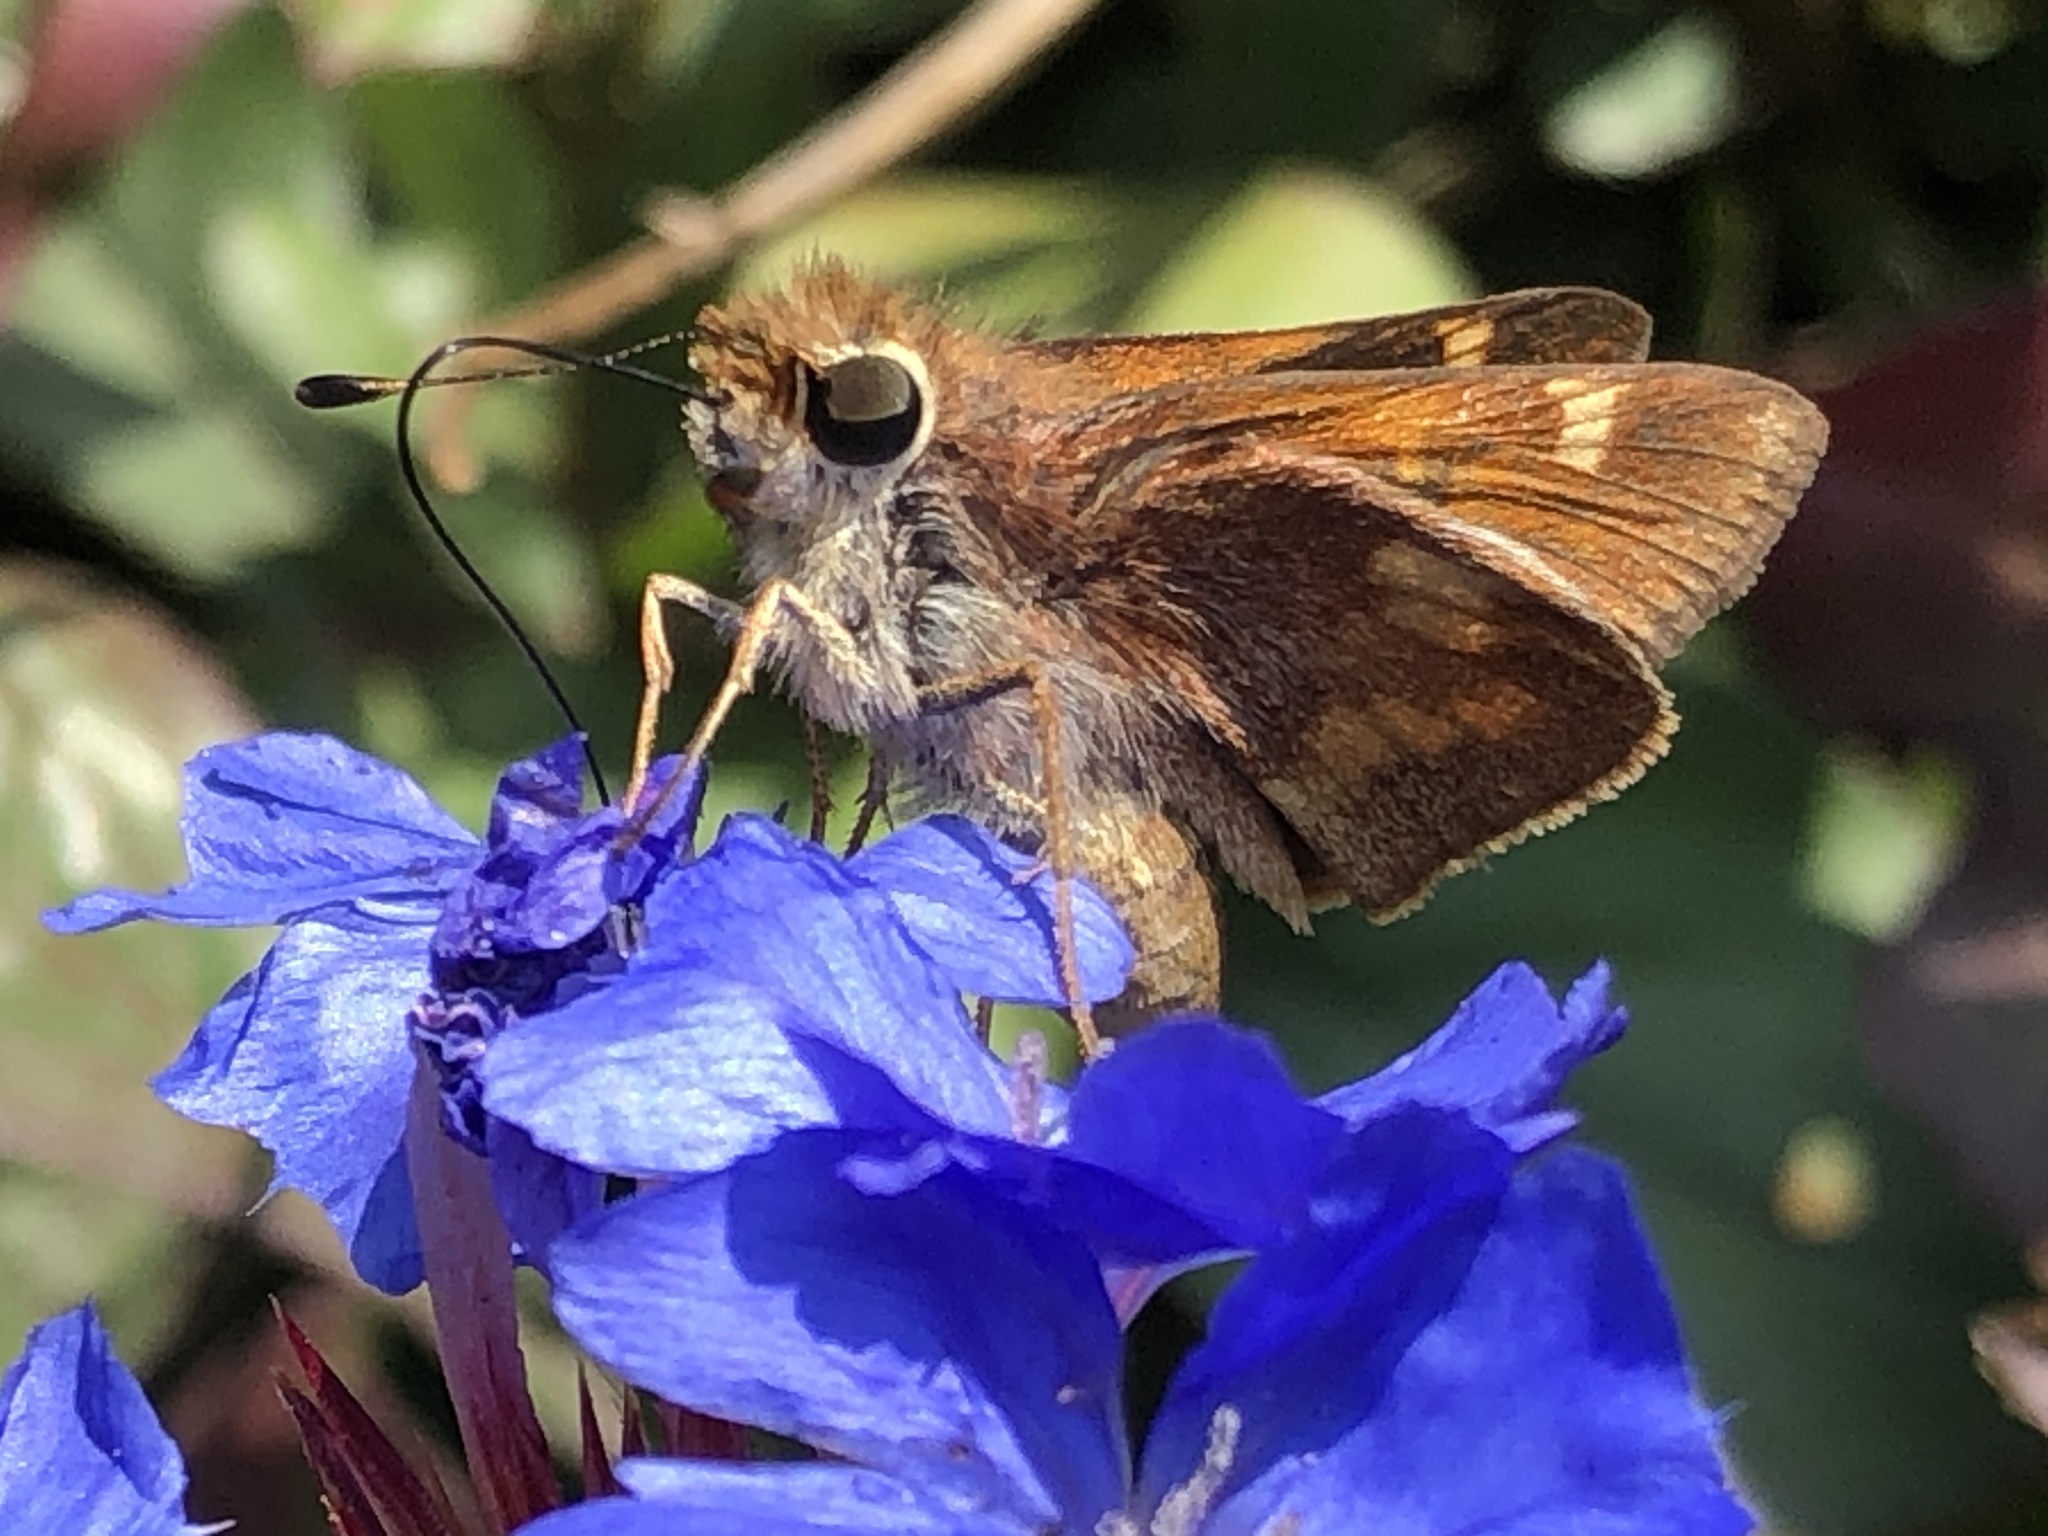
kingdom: Animalia
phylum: Arthropoda
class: Insecta
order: Lepidoptera
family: Hesperiidae
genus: Lon
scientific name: Lon melane
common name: Umber skipper
